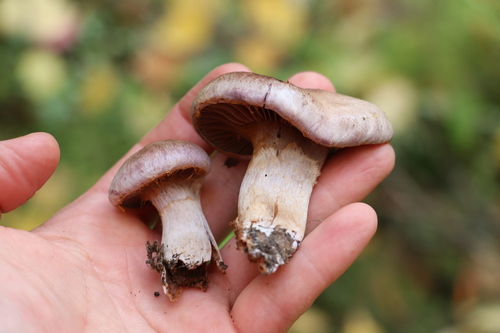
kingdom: Fungi
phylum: Basidiomycota
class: Agaricomycetes
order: Agaricales
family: Cortinariaceae
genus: Cortinarius
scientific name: Cortinarius
